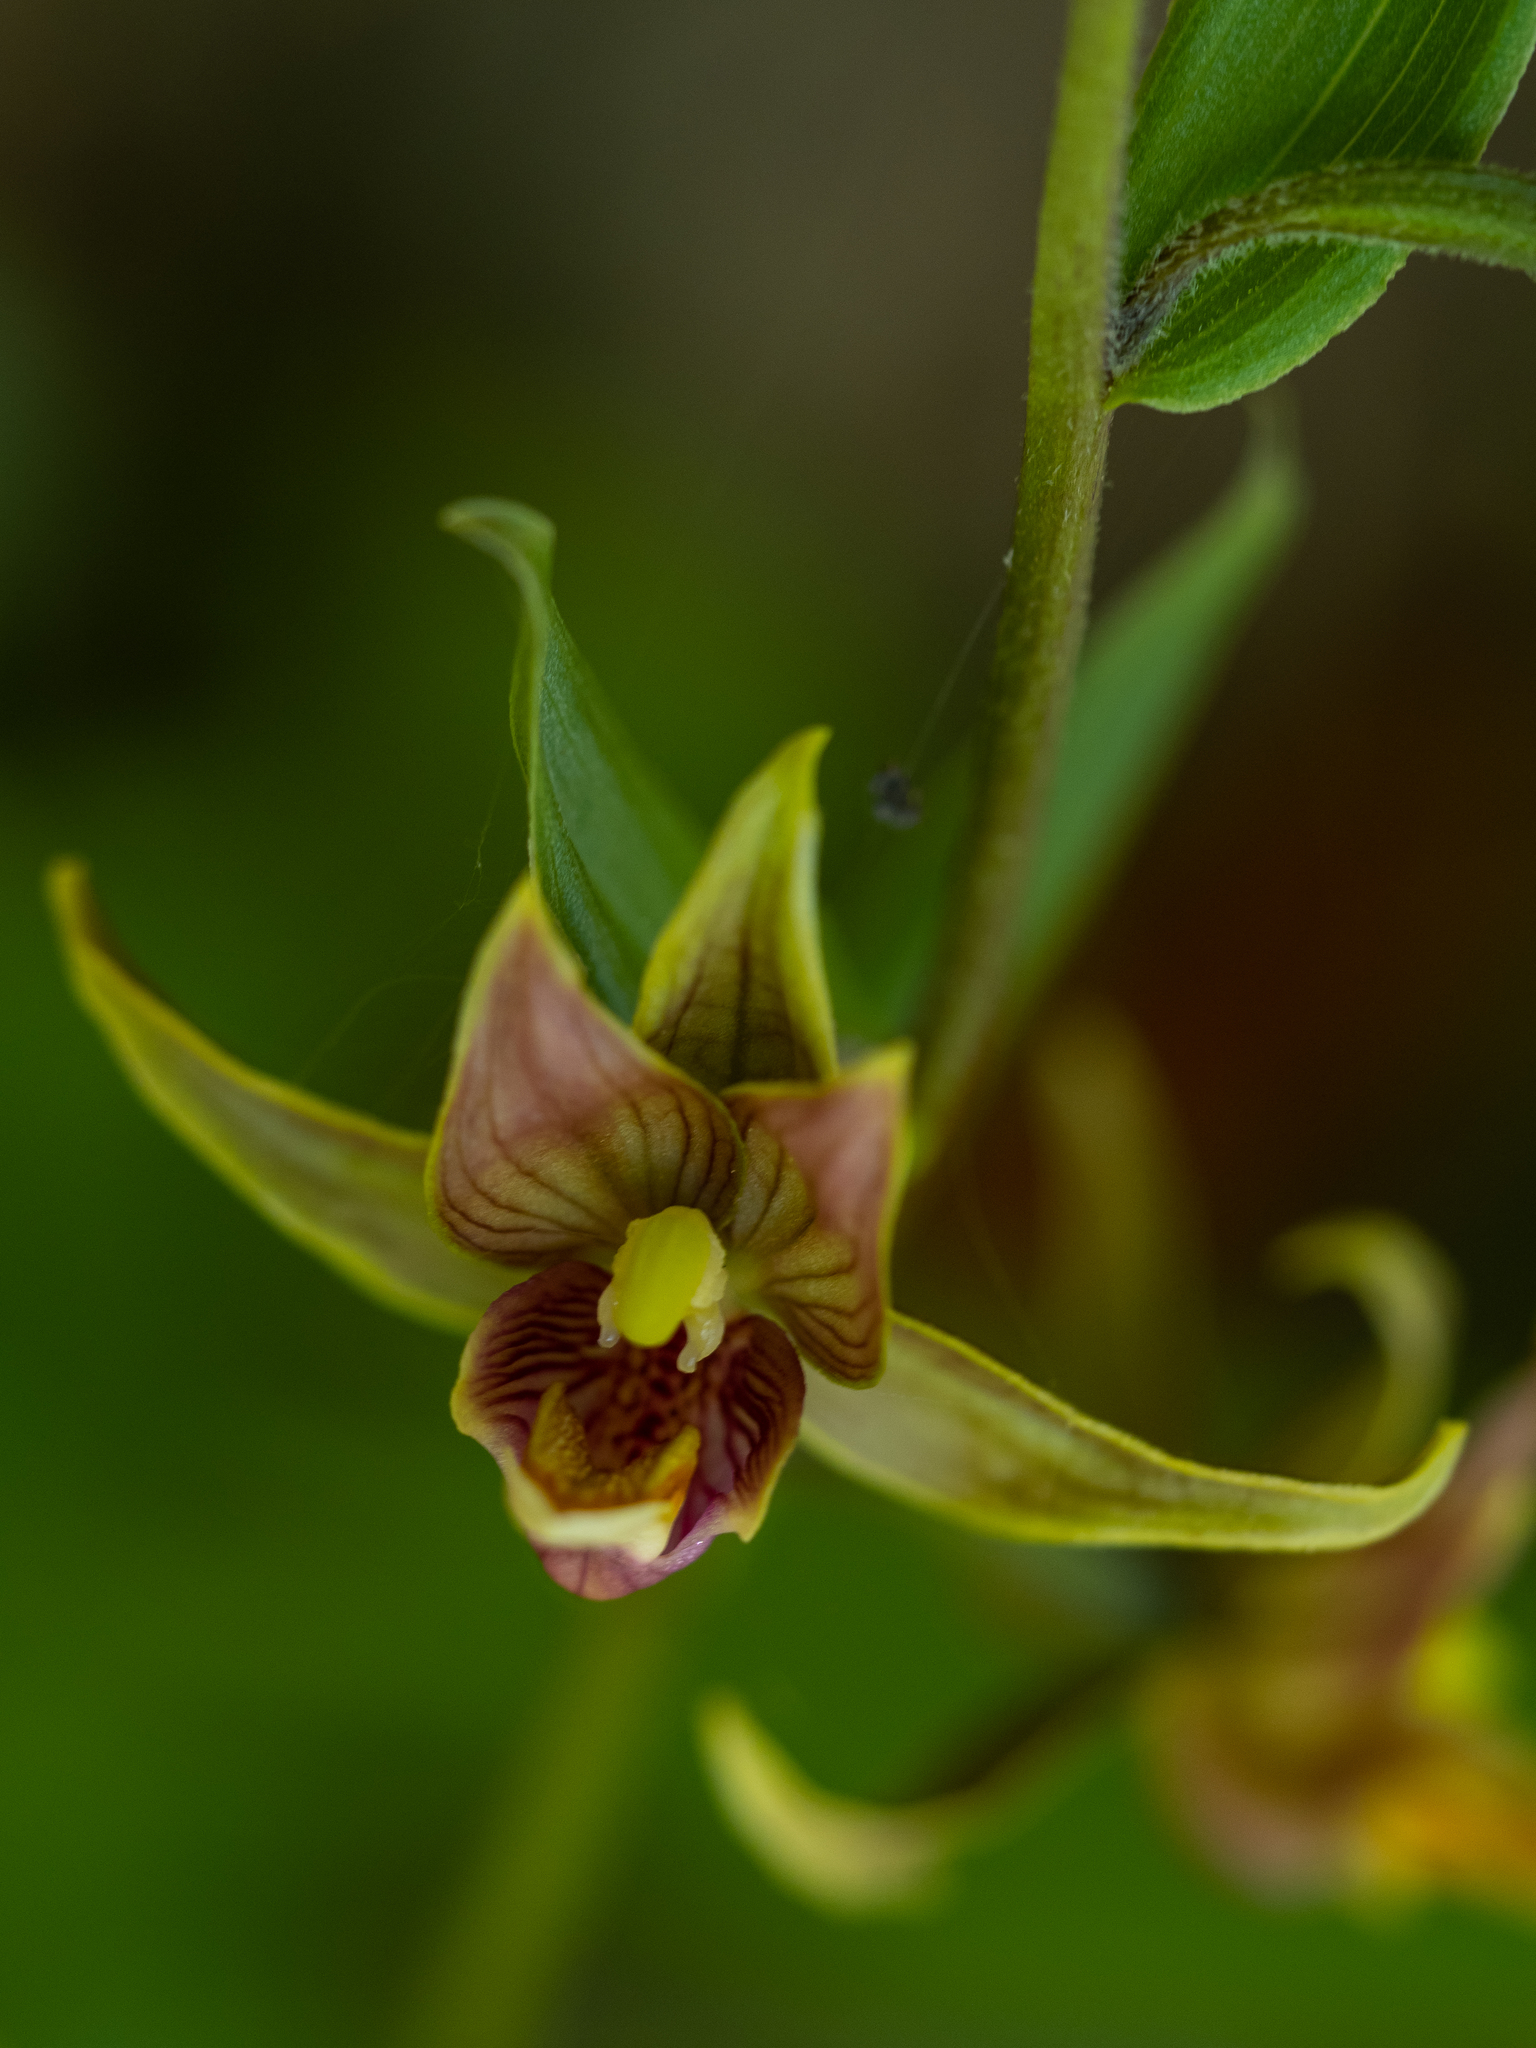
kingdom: Plantae
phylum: Tracheophyta
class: Liliopsida
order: Asparagales
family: Orchidaceae
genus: Epipactis
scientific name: Epipactis gigantea
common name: Chatterbox
